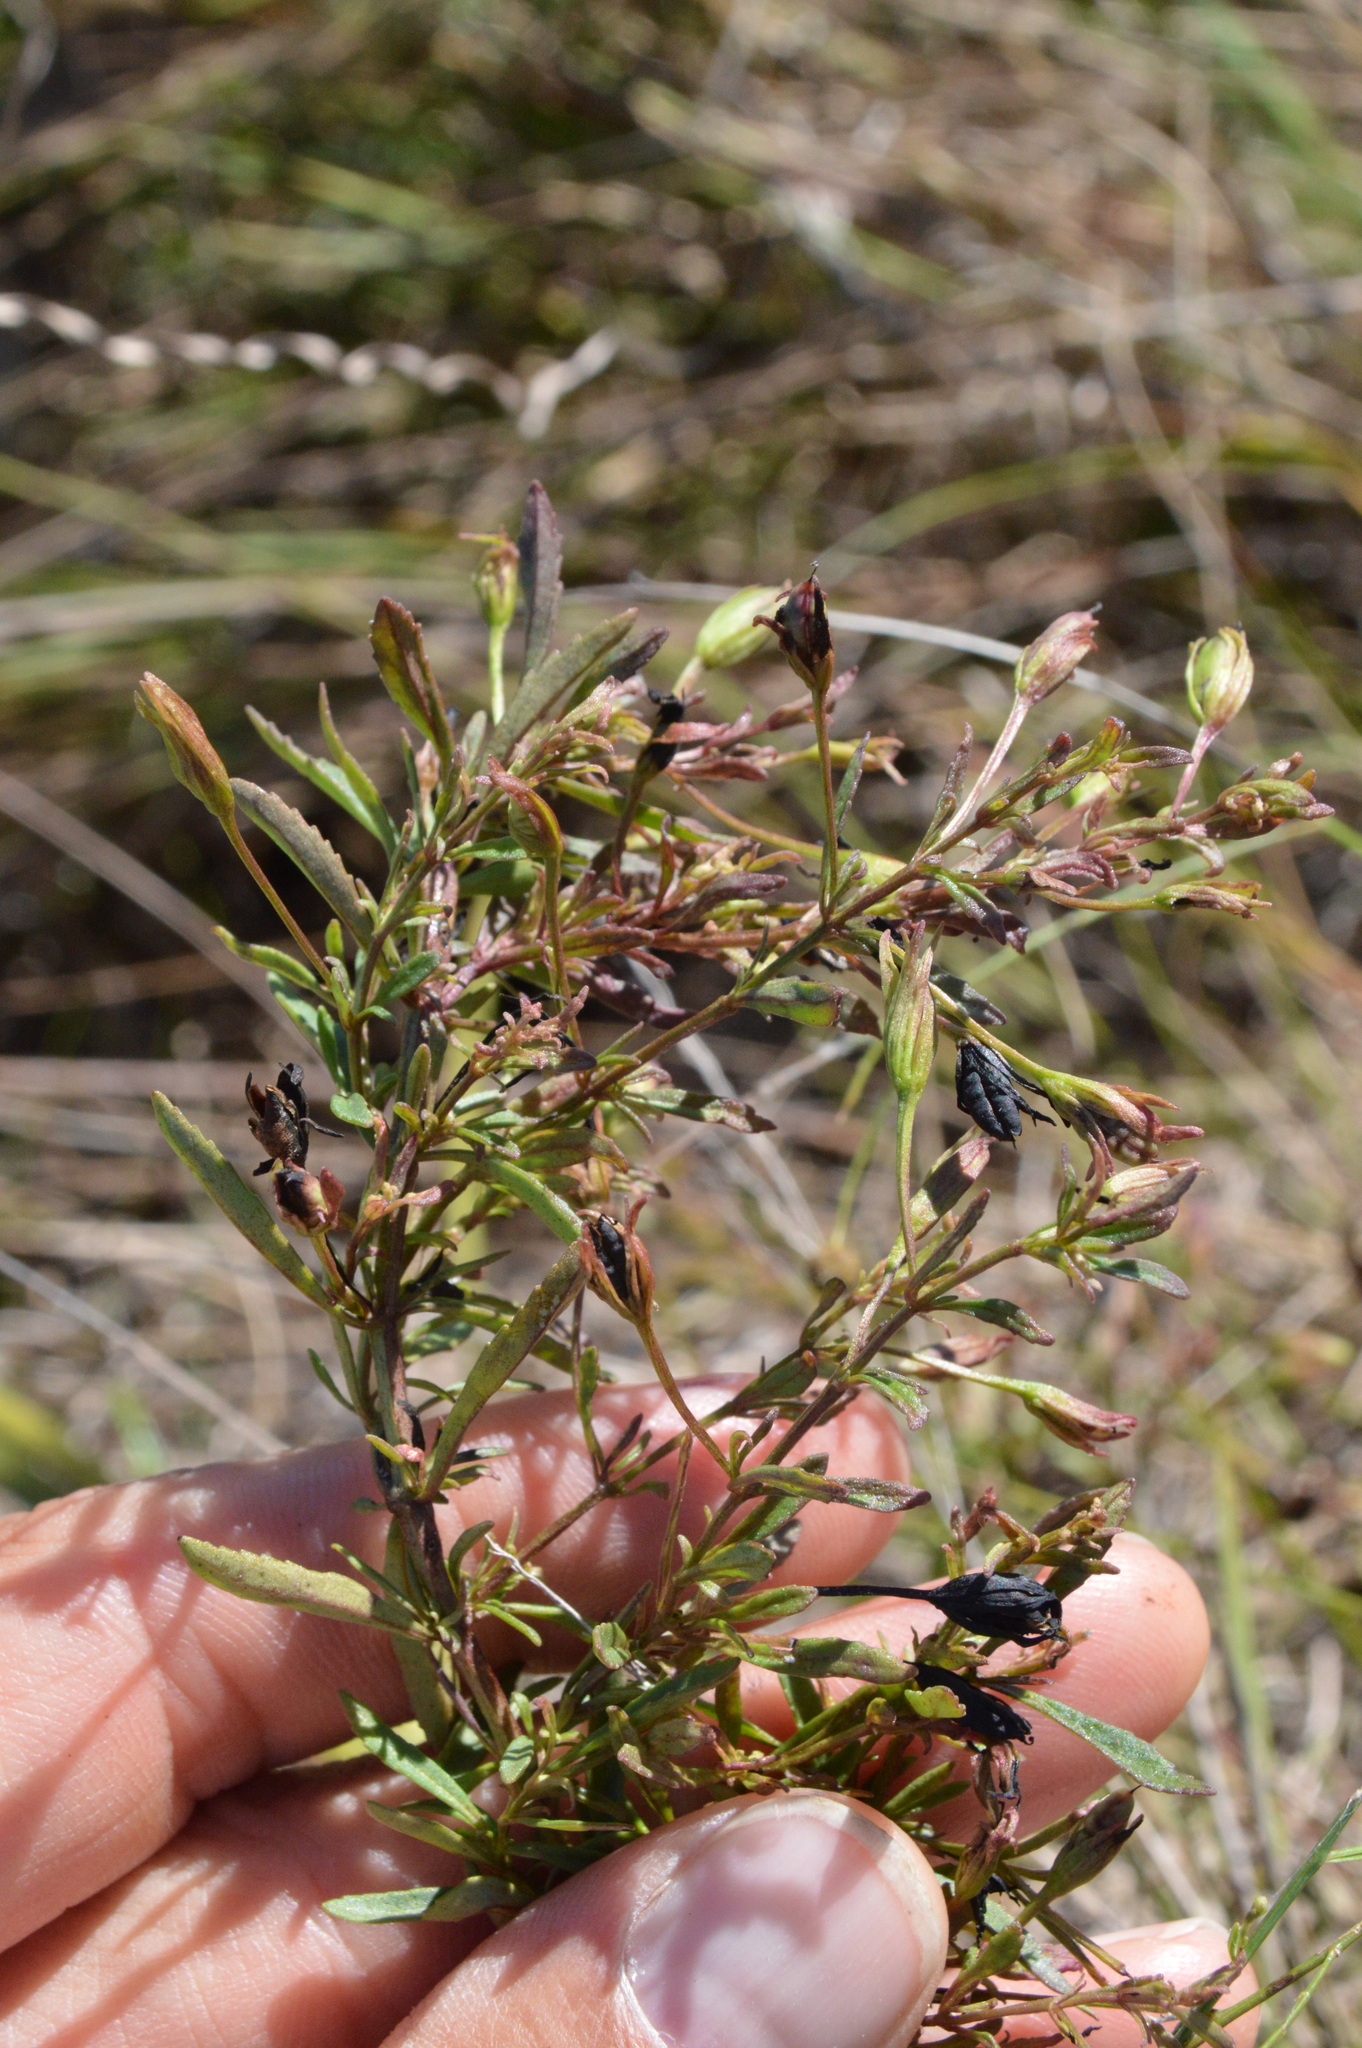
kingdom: Plantae
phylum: Tracheophyta
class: Magnoliopsida
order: Lamiales
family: Plantaginaceae
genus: Mecardonia
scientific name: Mecardonia acuminata
